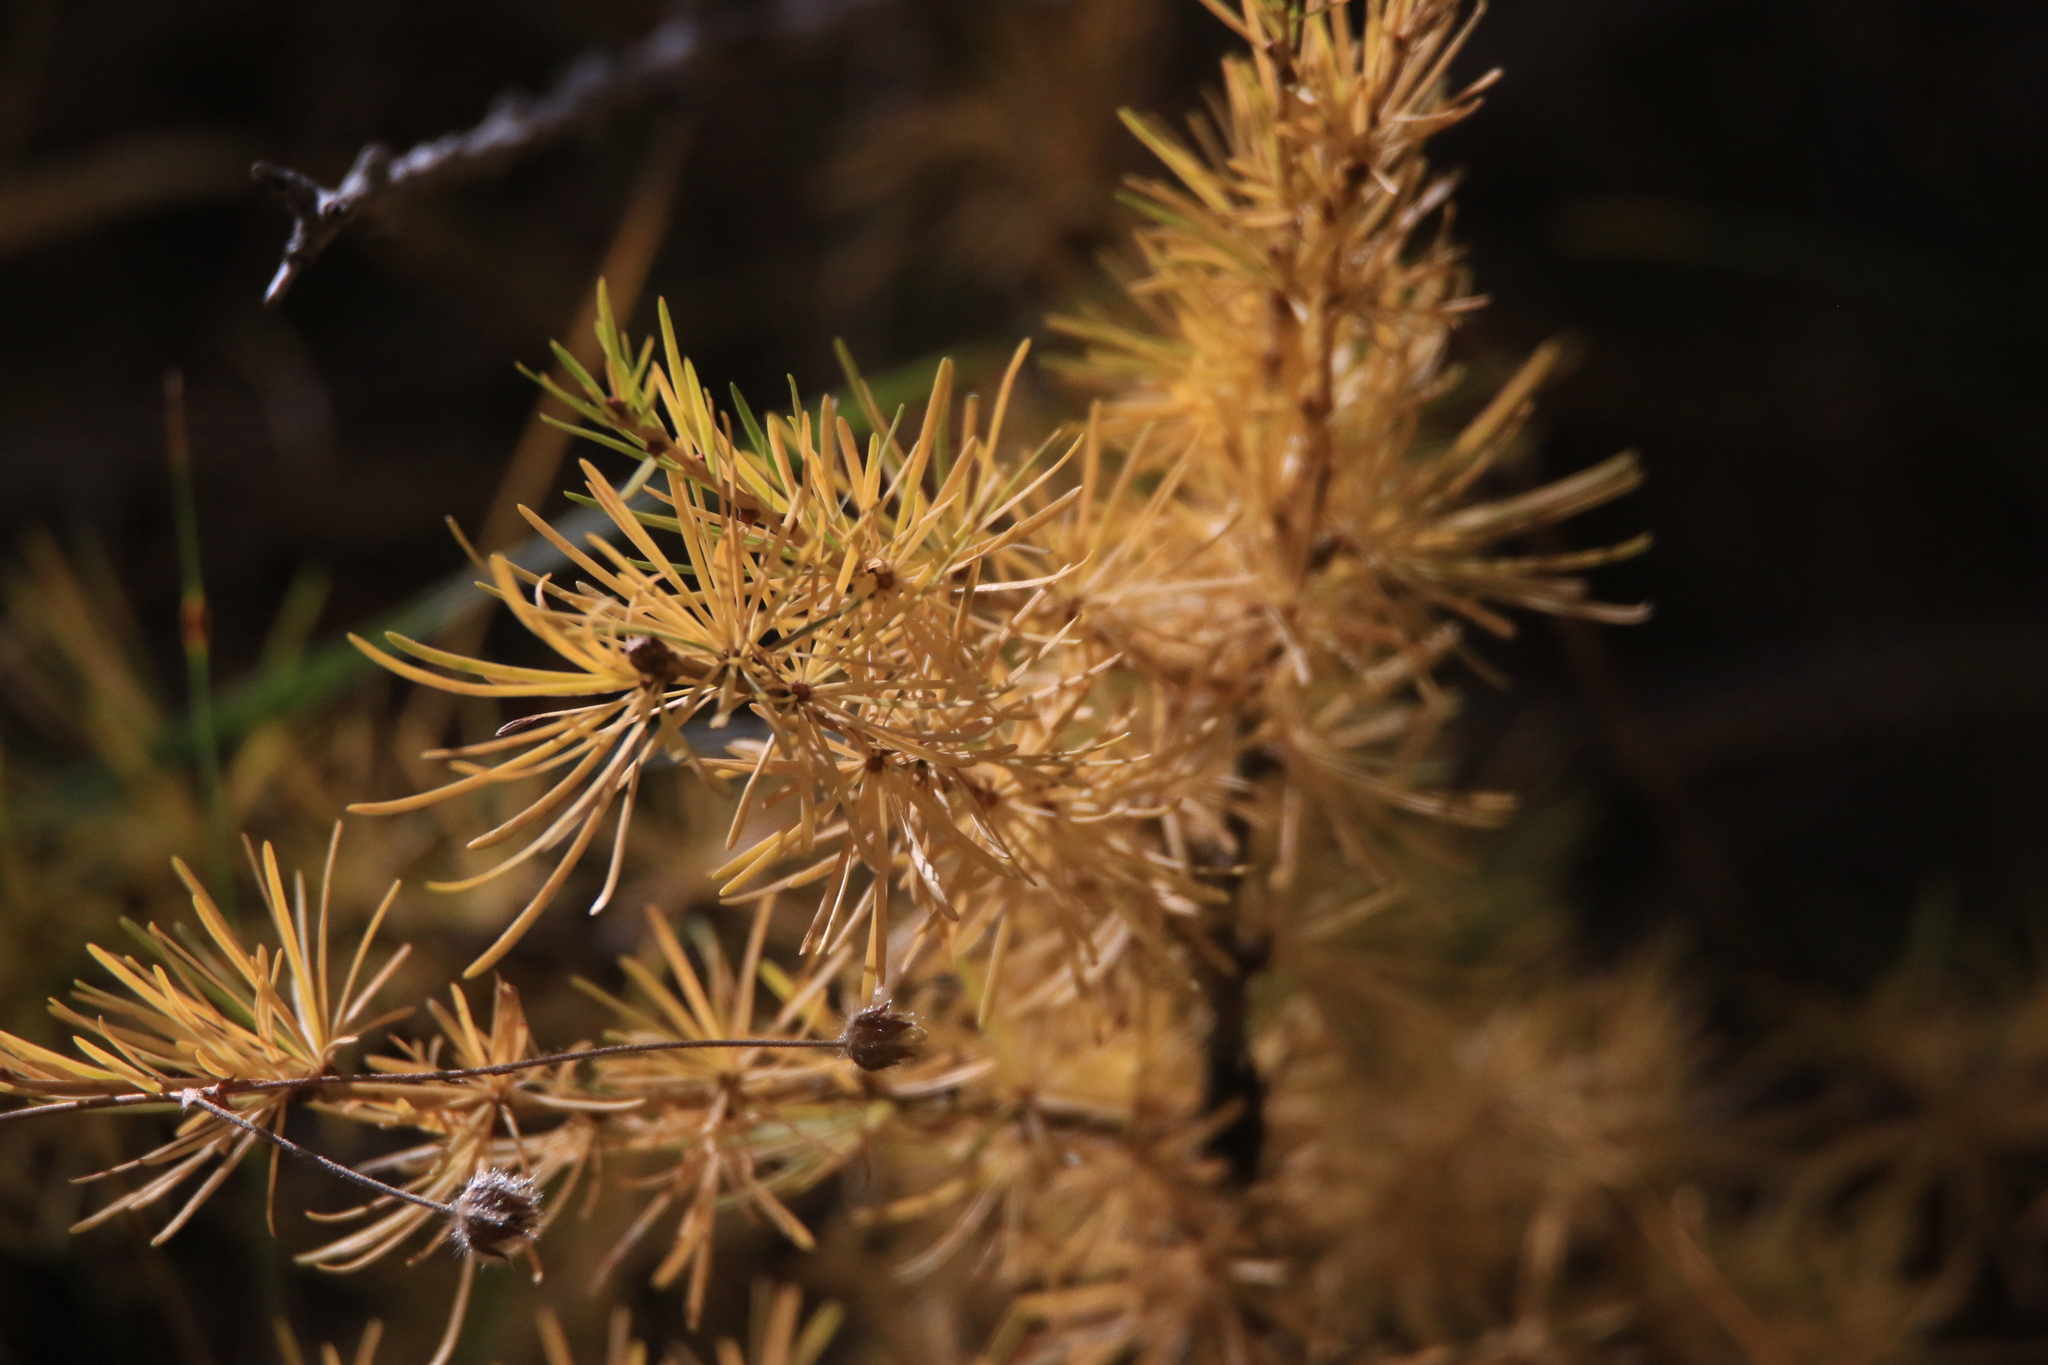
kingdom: Plantae
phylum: Tracheophyta
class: Pinopsida
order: Pinales
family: Pinaceae
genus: Larix
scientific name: Larix sibirica
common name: Siberian larch
